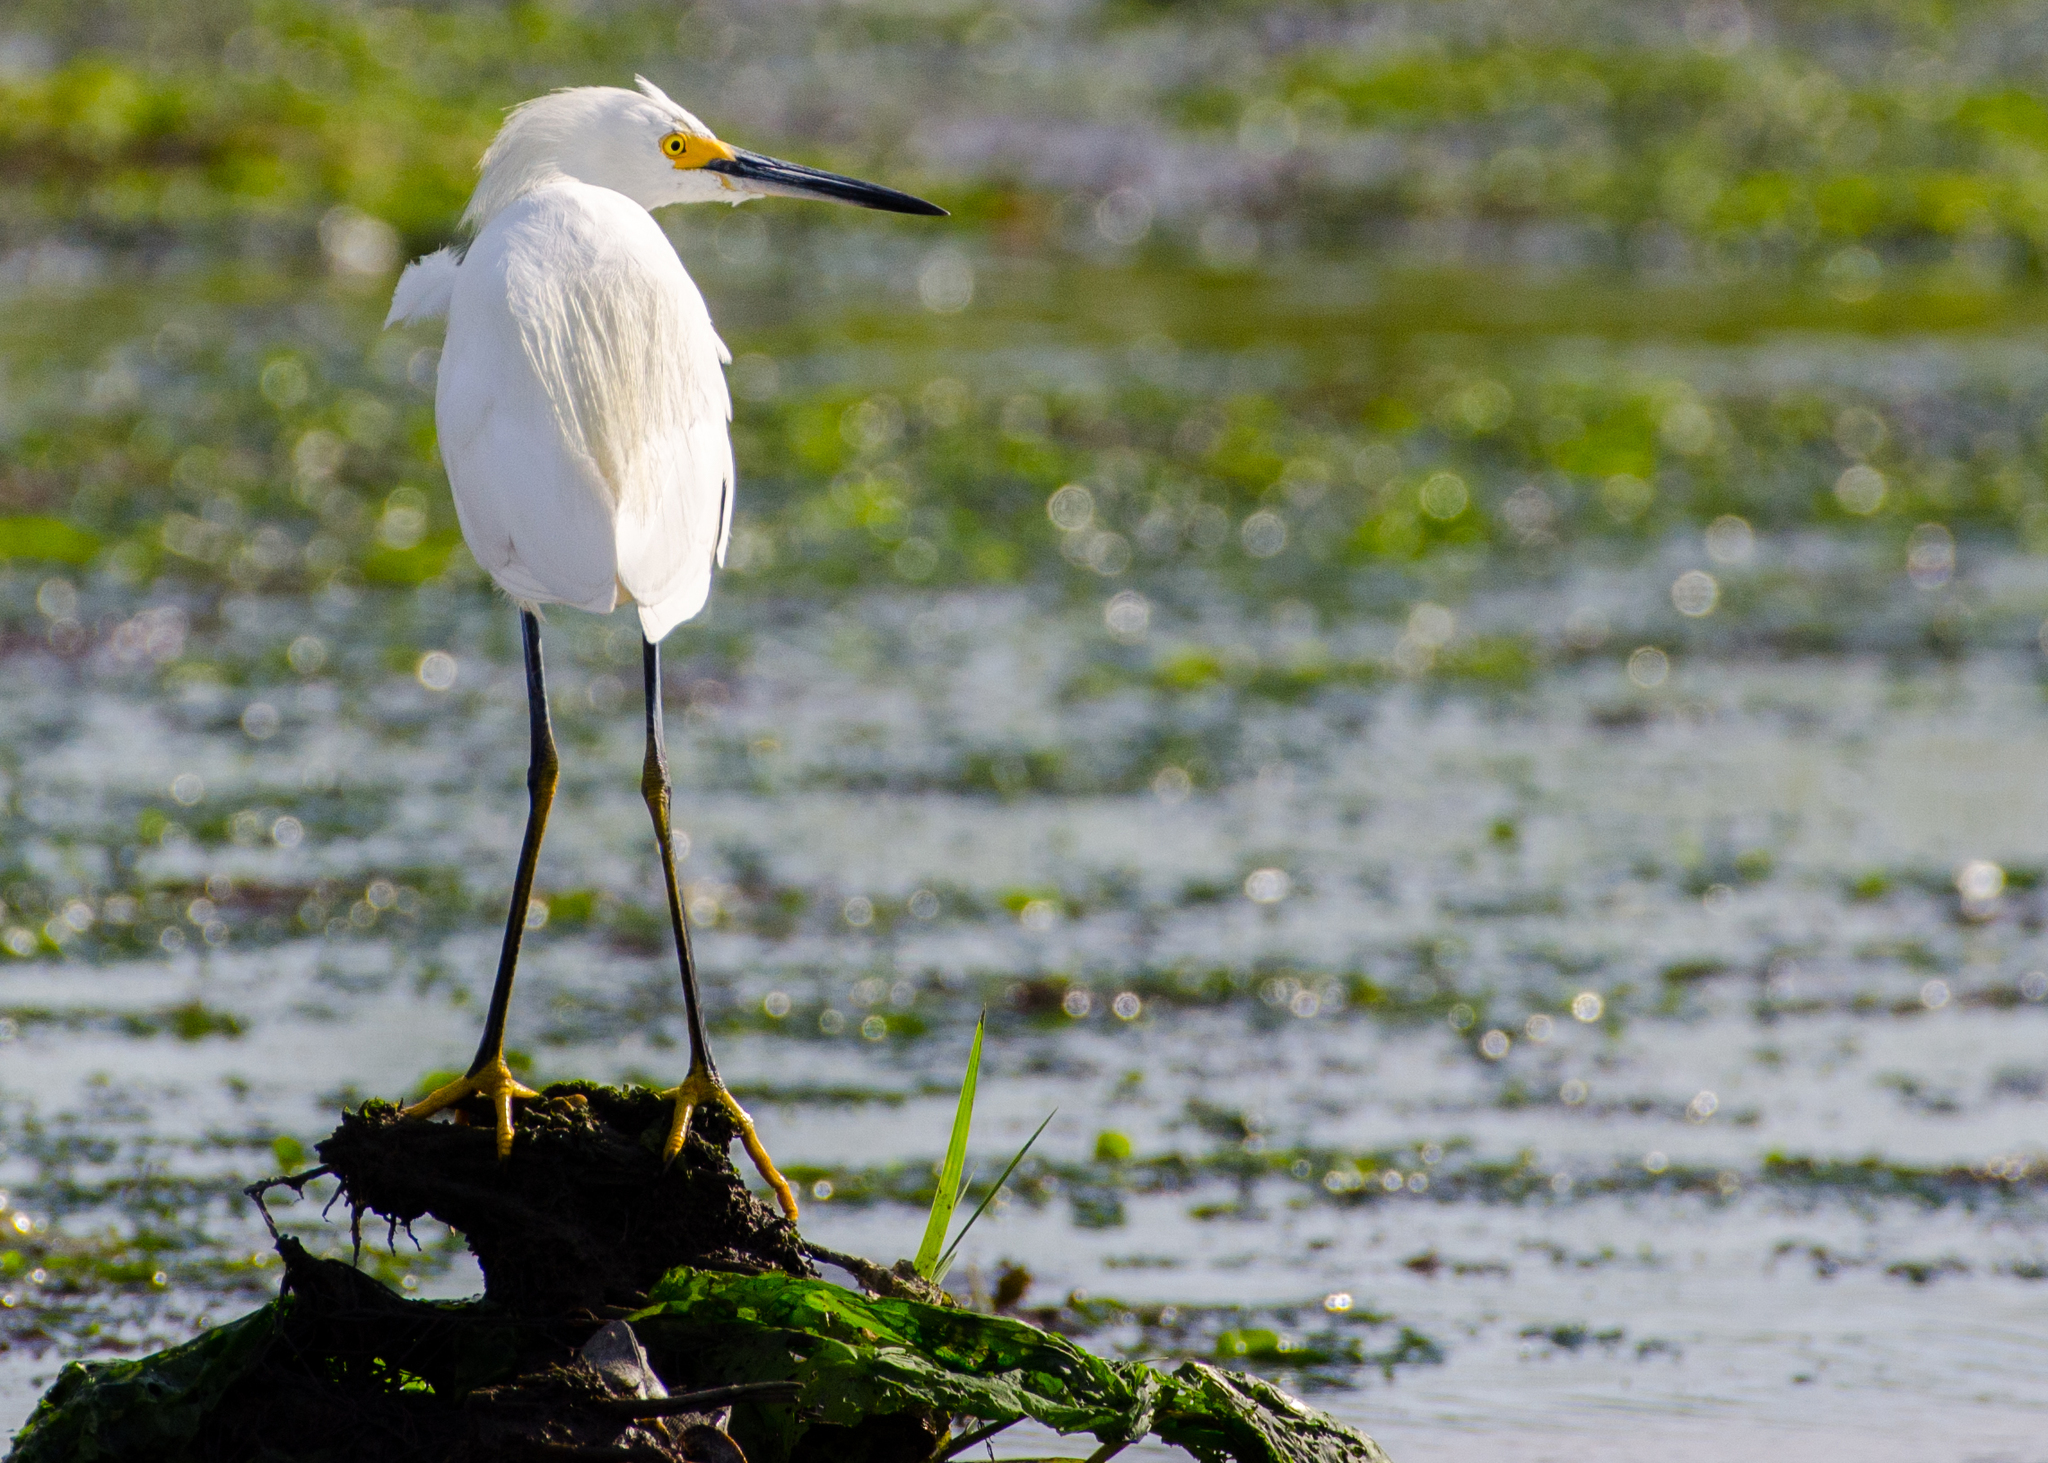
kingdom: Animalia
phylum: Chordata
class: Aves
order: Pelecaniformes
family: Ardeidae
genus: Egretta
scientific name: Egretta thula
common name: Snowy egret
